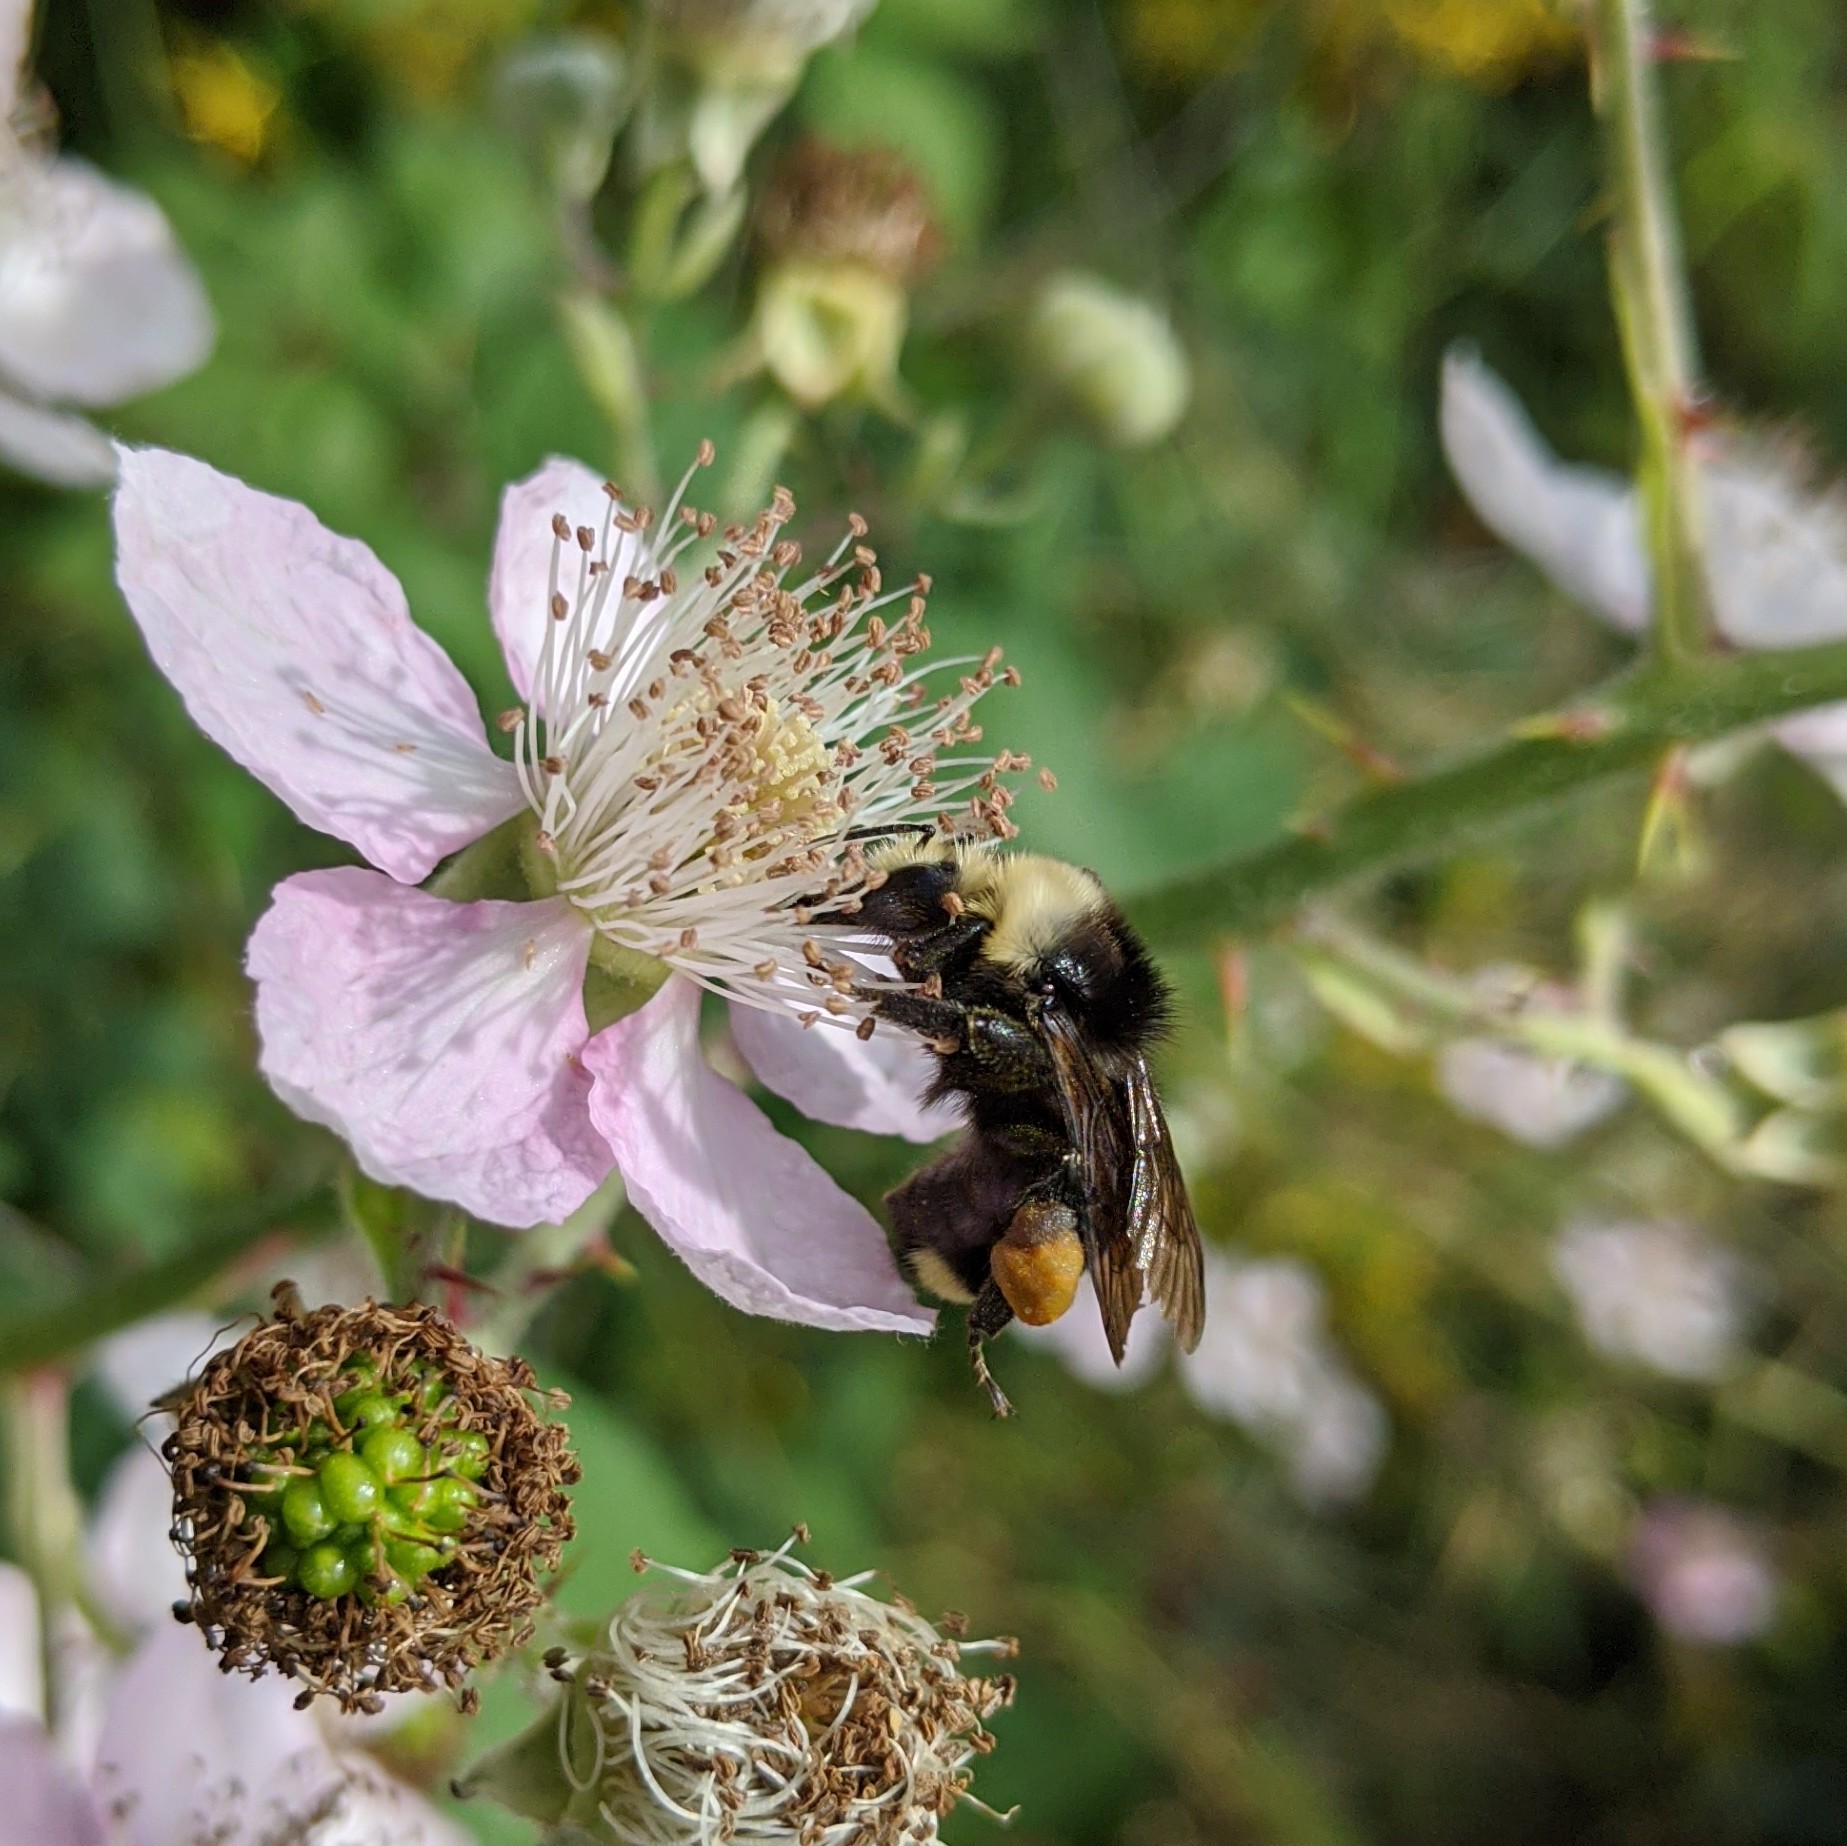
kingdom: Animalia
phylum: Arthropoda
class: Insecta
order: Hymenoptera
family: Apidae
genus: Bombus
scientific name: Bombus vosnesenskii
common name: Vosnesensky bumble bee
